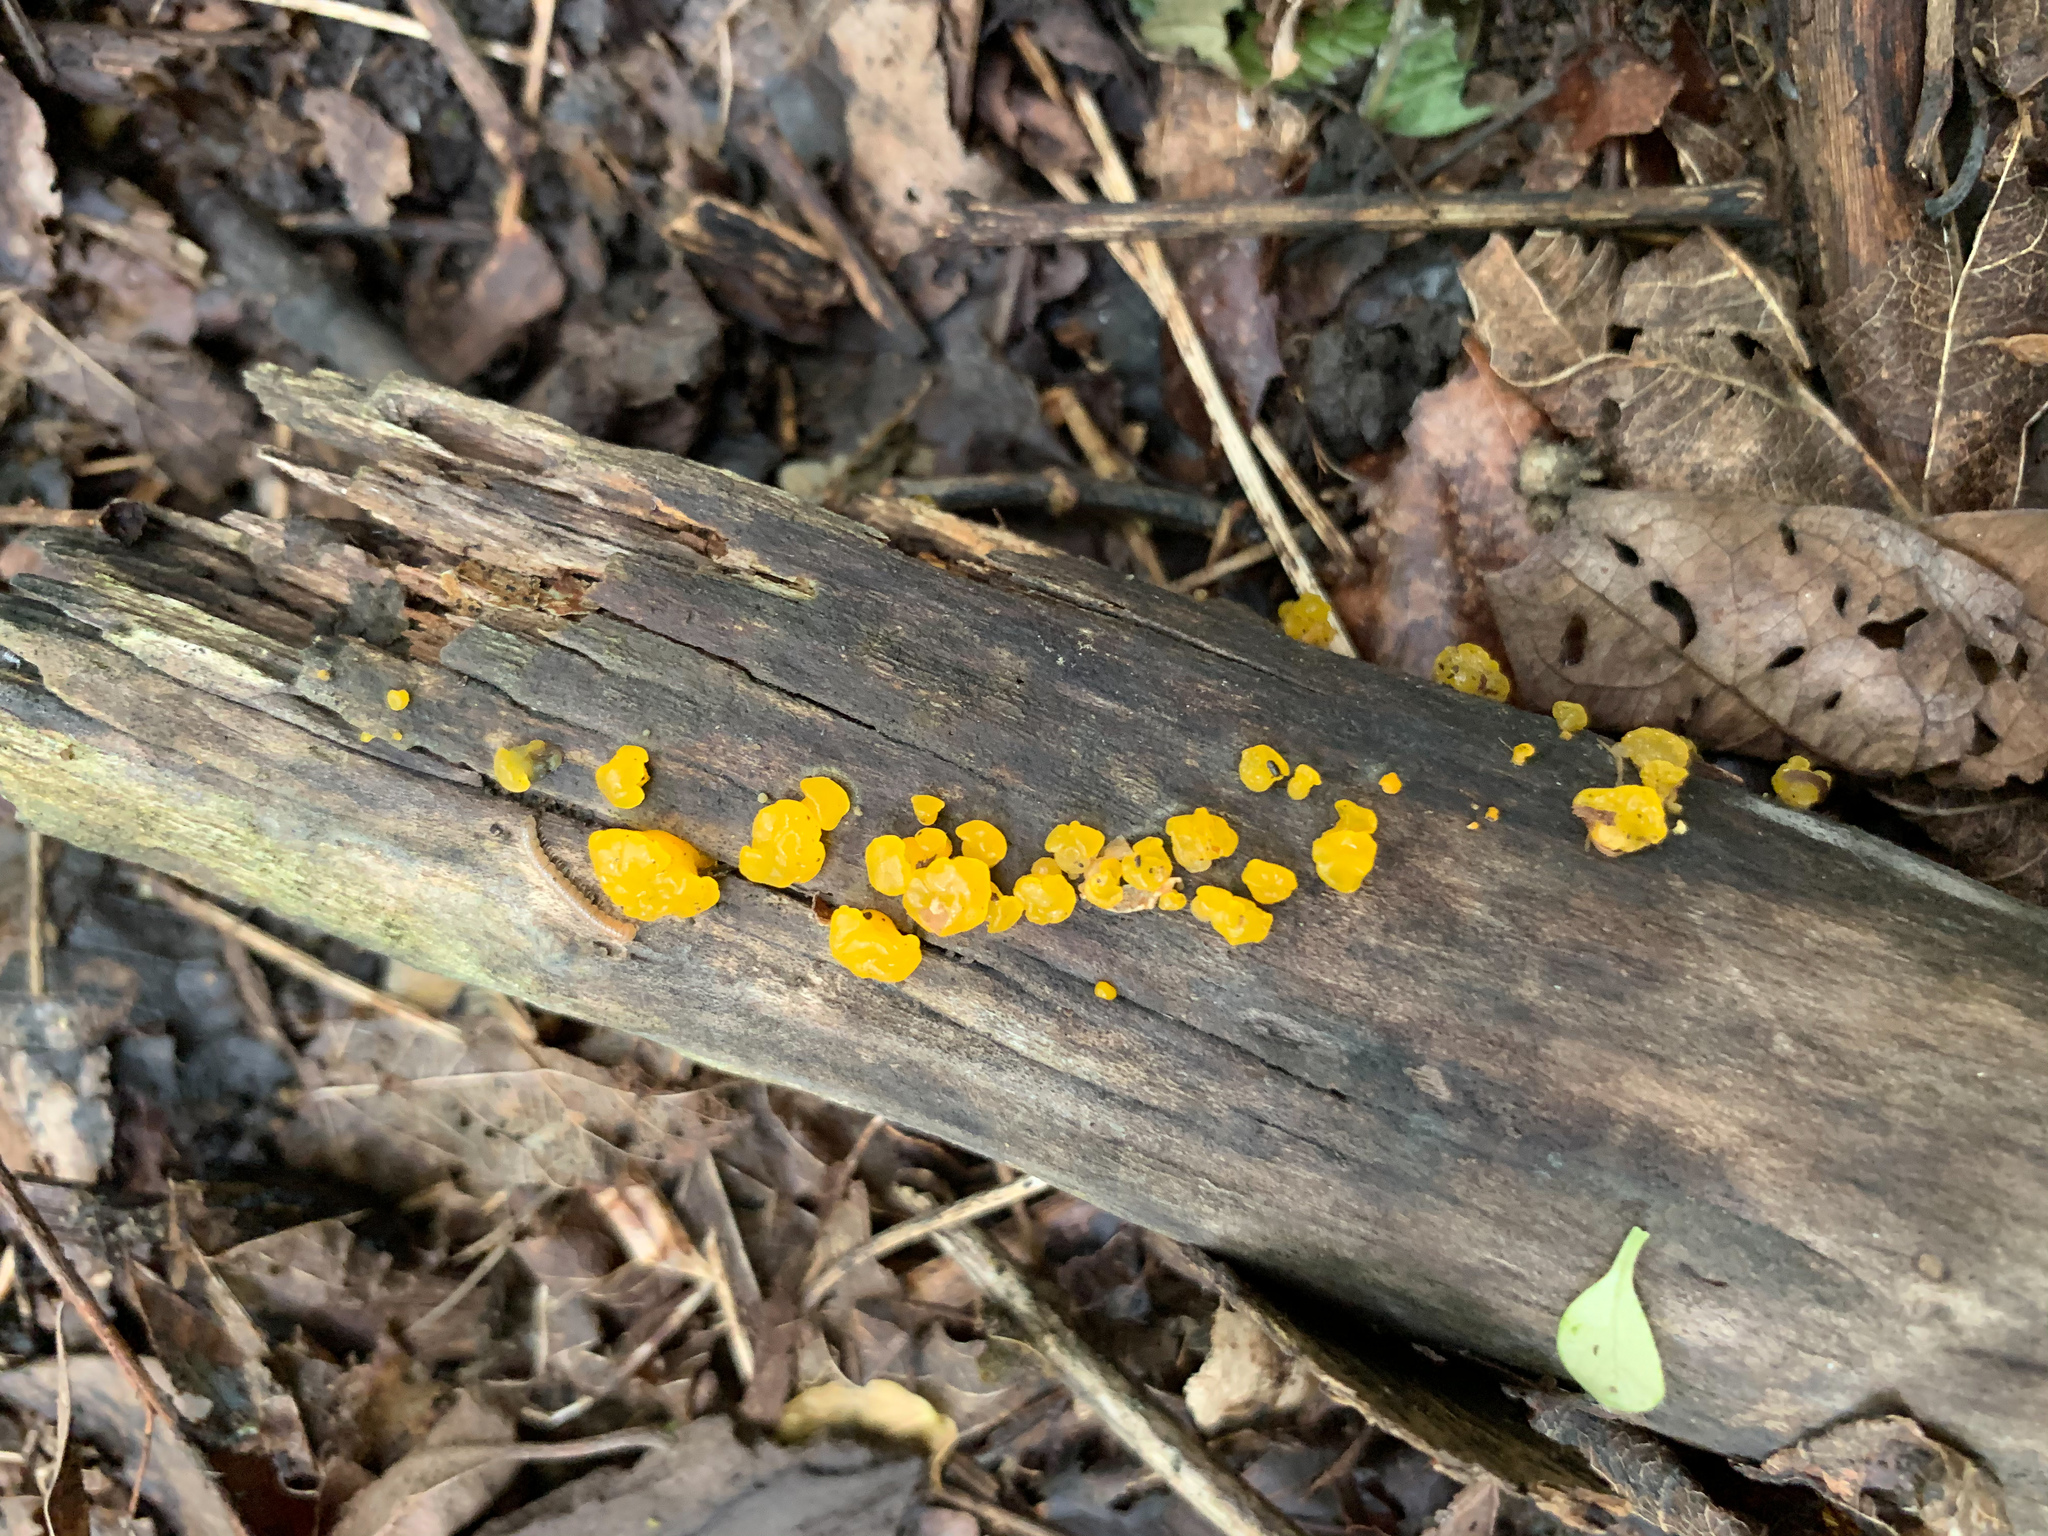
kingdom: Fungi
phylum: Basidiomycota
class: Dacrymycetes
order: Dacrymycetales
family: Dacrymycetaceae
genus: Dacrymyces
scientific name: Dacrymyces capitatus
